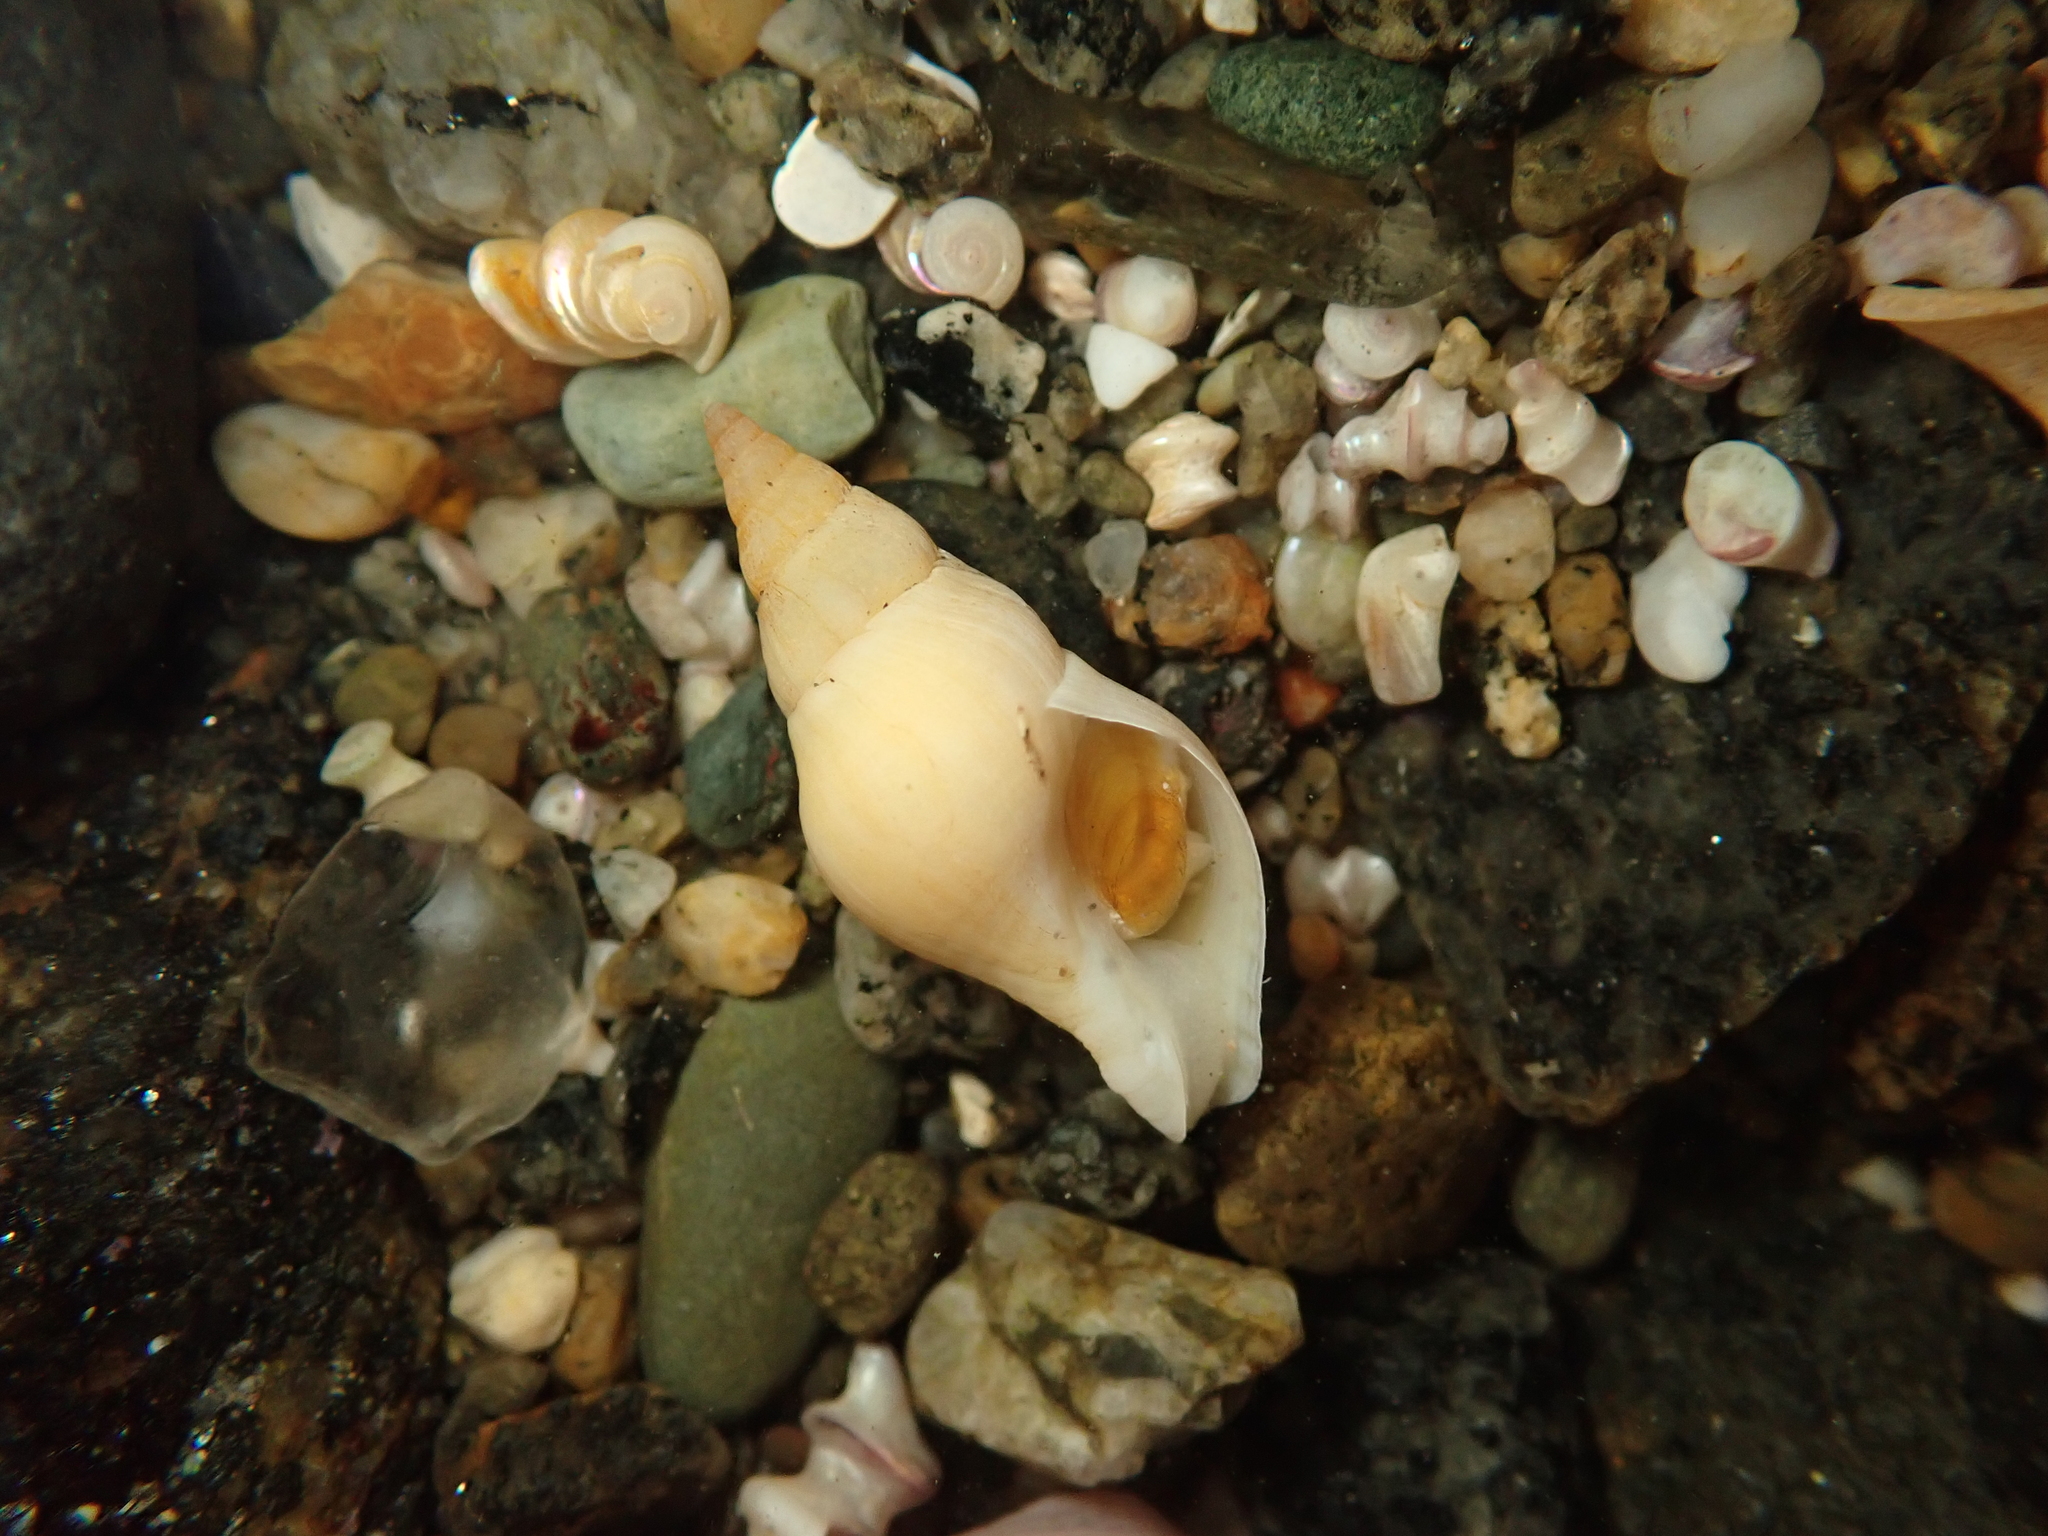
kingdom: Animalia
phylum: Mollusca
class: Gastropoda
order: Neogastropoda
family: Tudiclidae
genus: Buccinulum
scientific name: Buccinulum littorinoides
